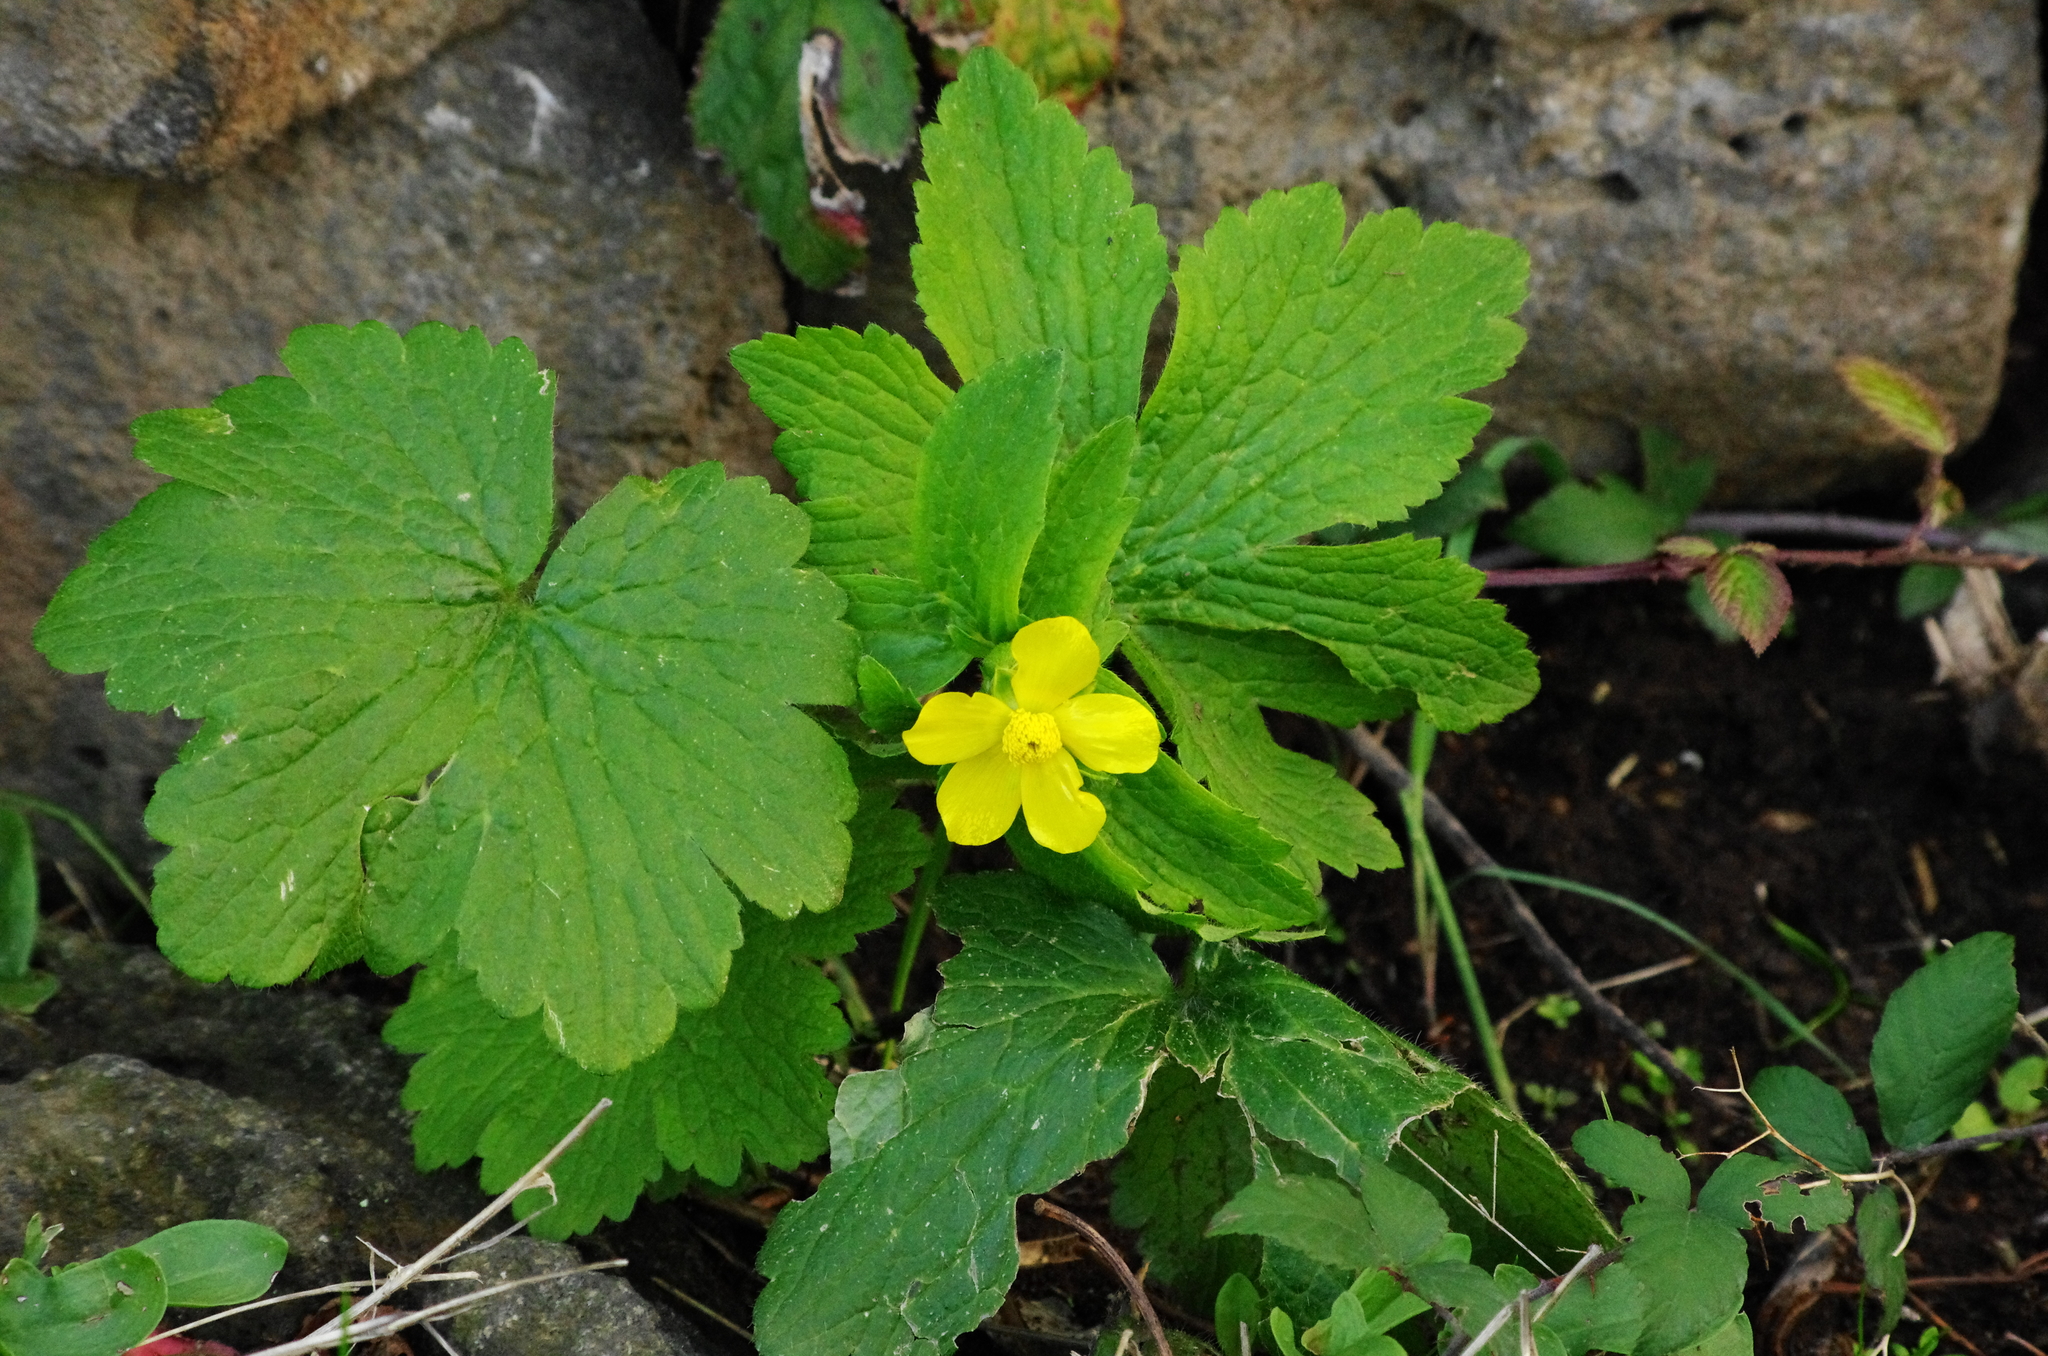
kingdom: Plantae
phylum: Tracheophyta
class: Magnoliopsida
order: Ranunculales
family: Ranunculaceae
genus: Ranunculus
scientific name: Ranunculus cortusifolius
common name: Azores buttercup
